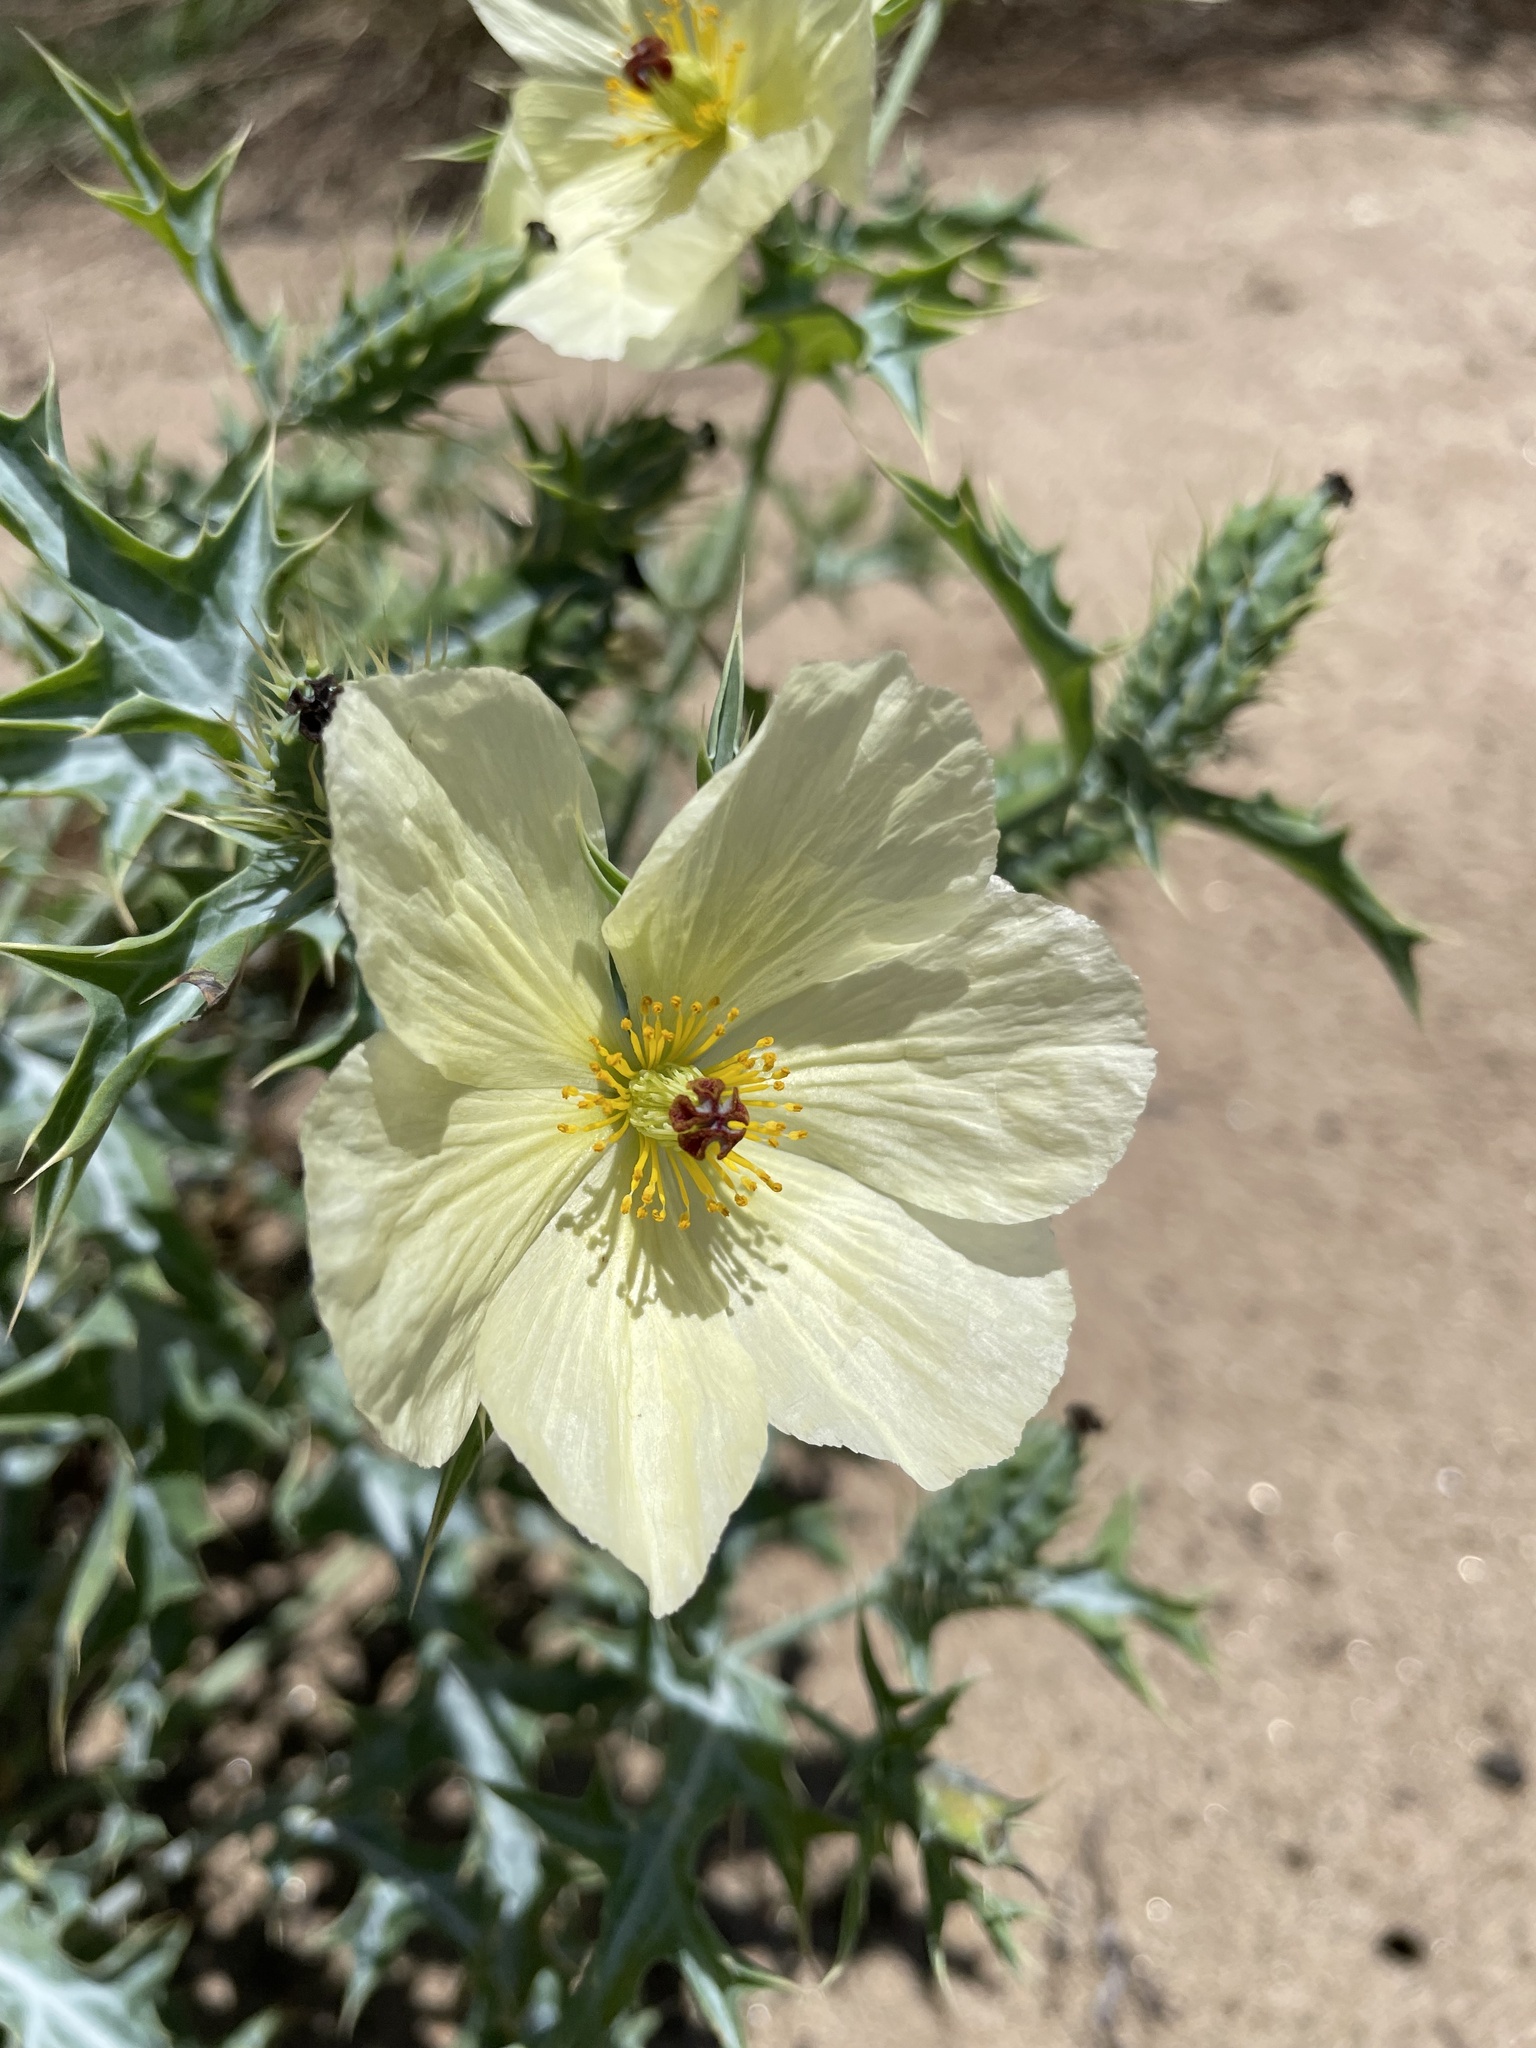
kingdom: Plantae
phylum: Tracheophyta
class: Magnoliopsida
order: Ranunculales
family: Papaveraceae
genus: Argemone
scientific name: Argemone ochroleuca
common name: White-flower mexican-poppy
